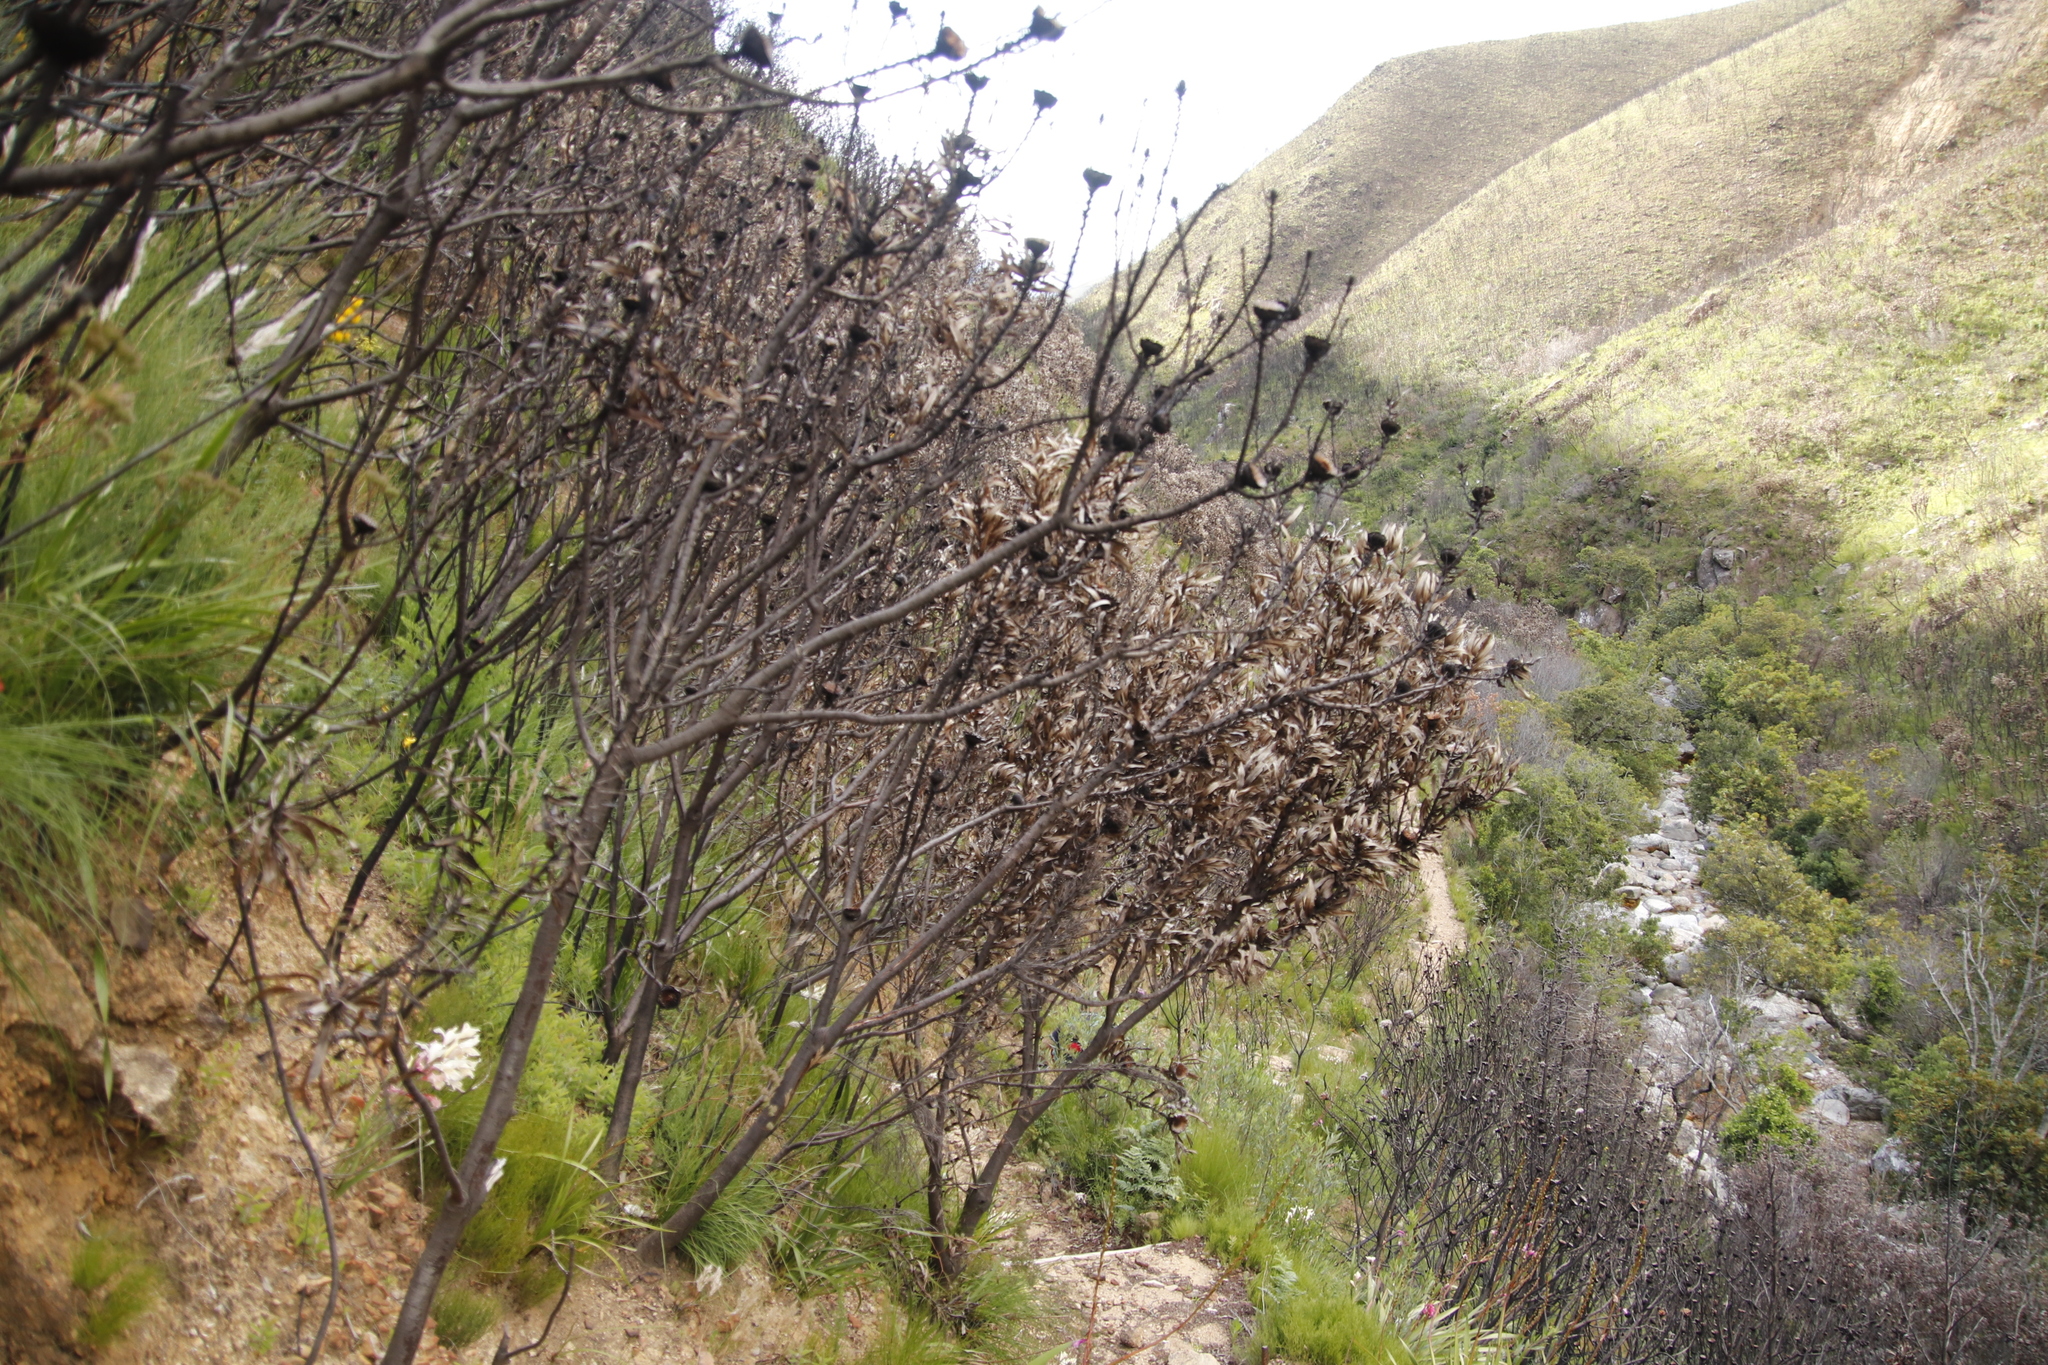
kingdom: Plantae
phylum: Tracheophyta
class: Magnoliopsida
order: Proteales
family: Proteaceae
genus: Protea
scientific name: Protea neriifolia
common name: Blue sugarbush
